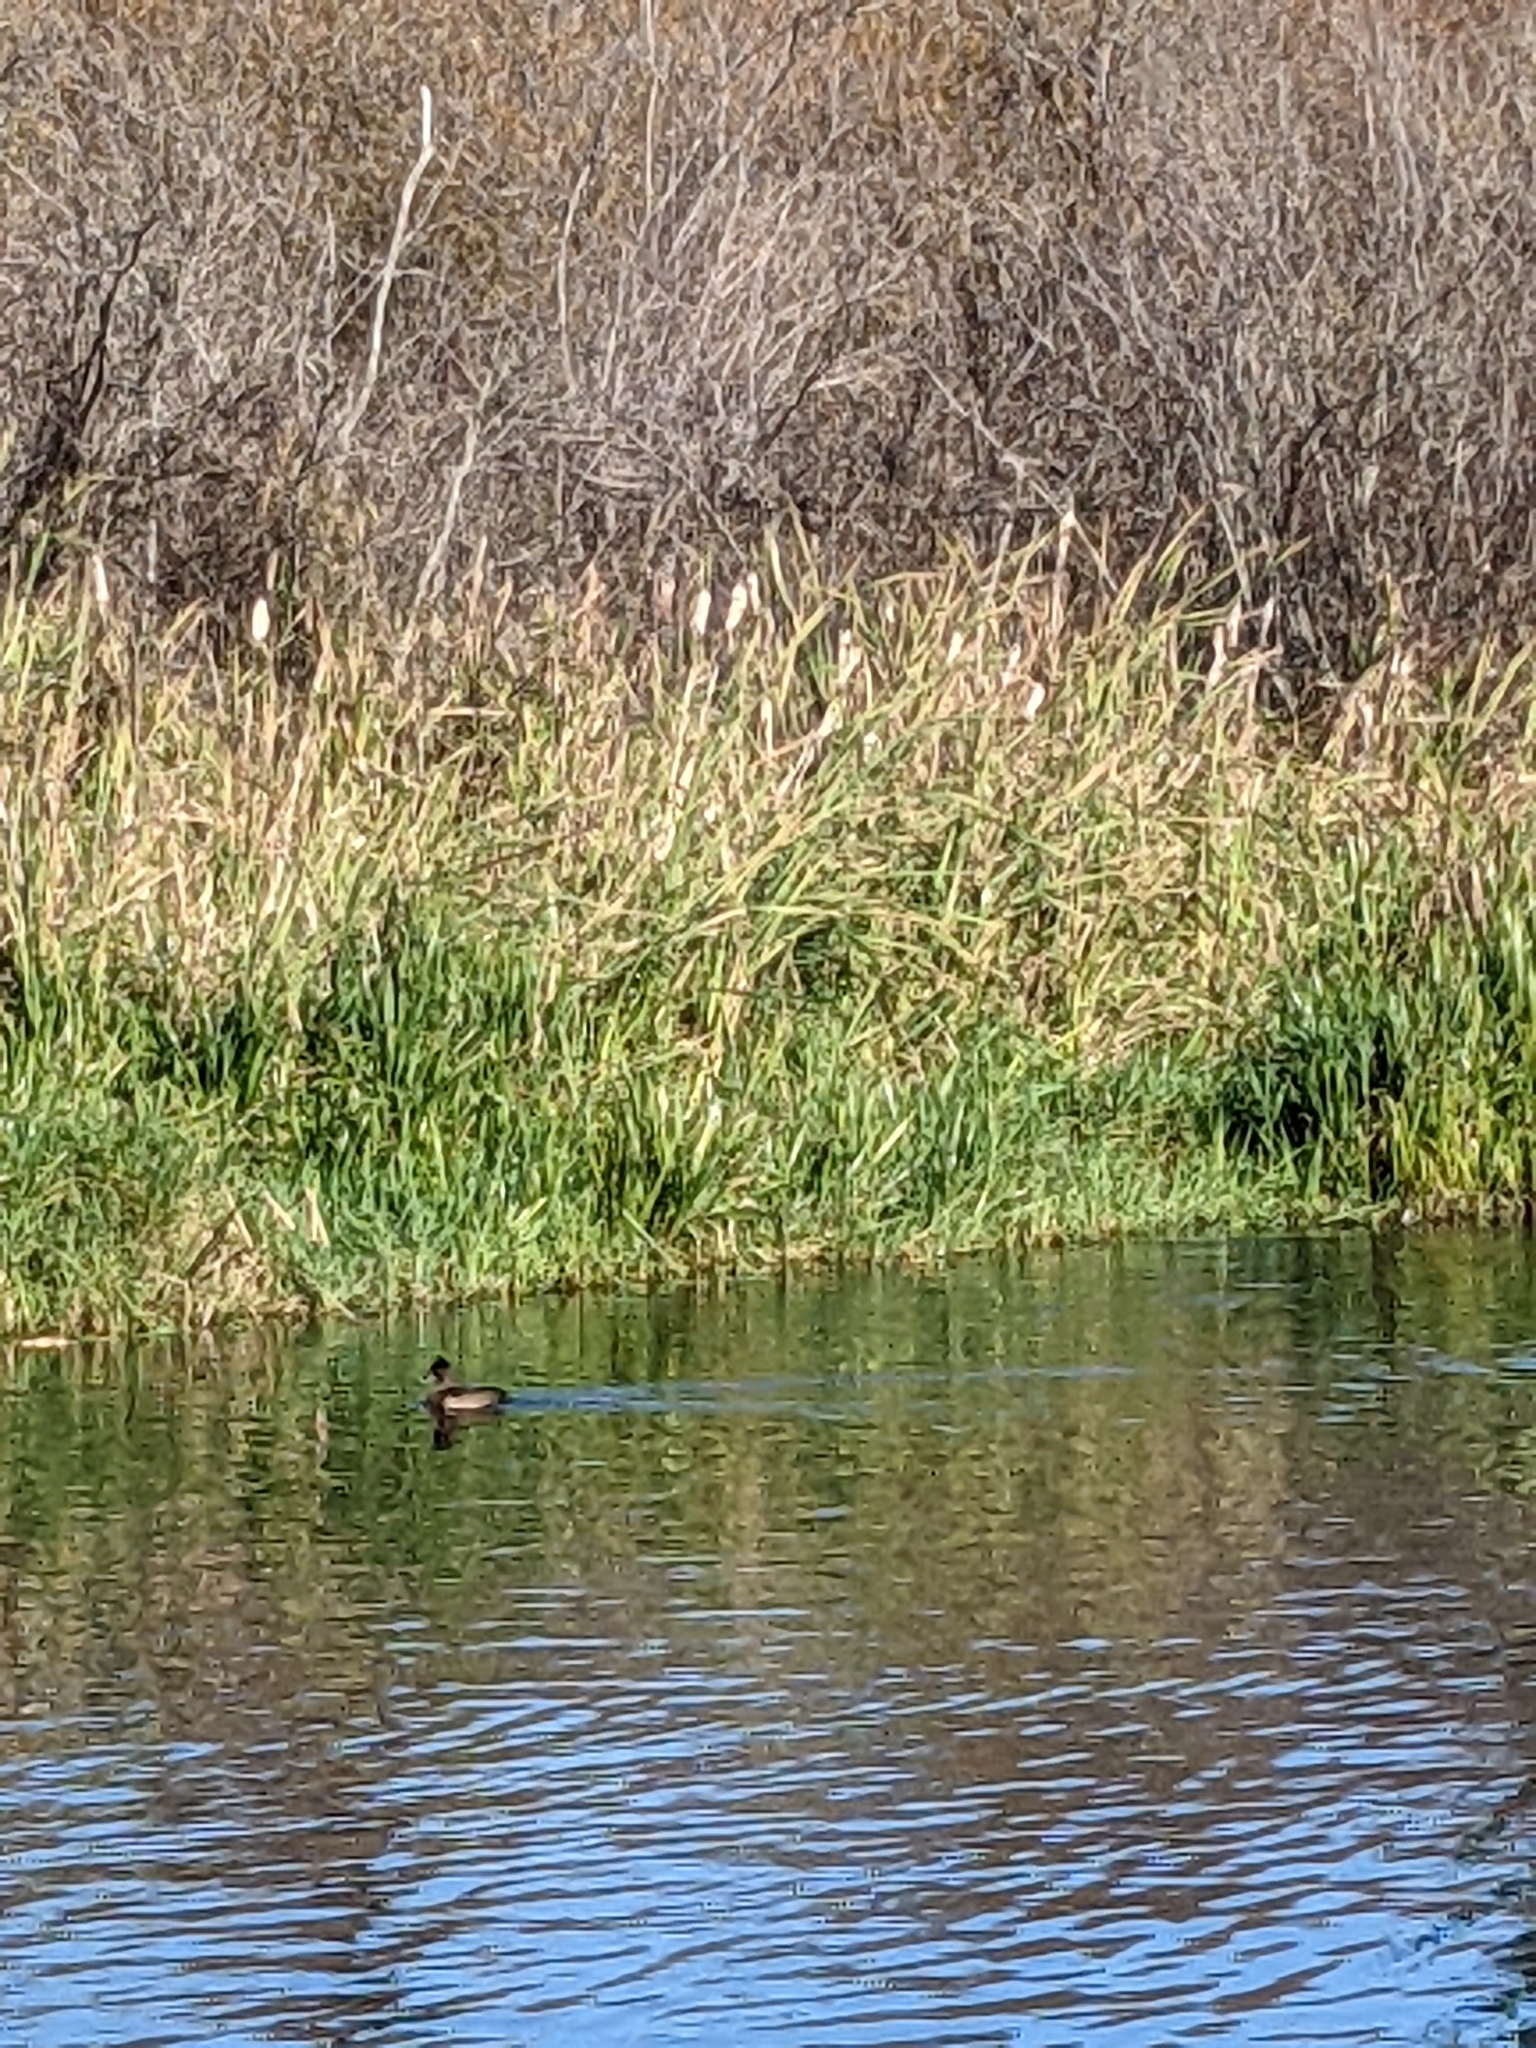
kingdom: Animalia
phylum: Chordata
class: Aves
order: Anseriformes
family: Anatidae
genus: Aythya
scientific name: Aythya collaris
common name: Ring-necked duck
